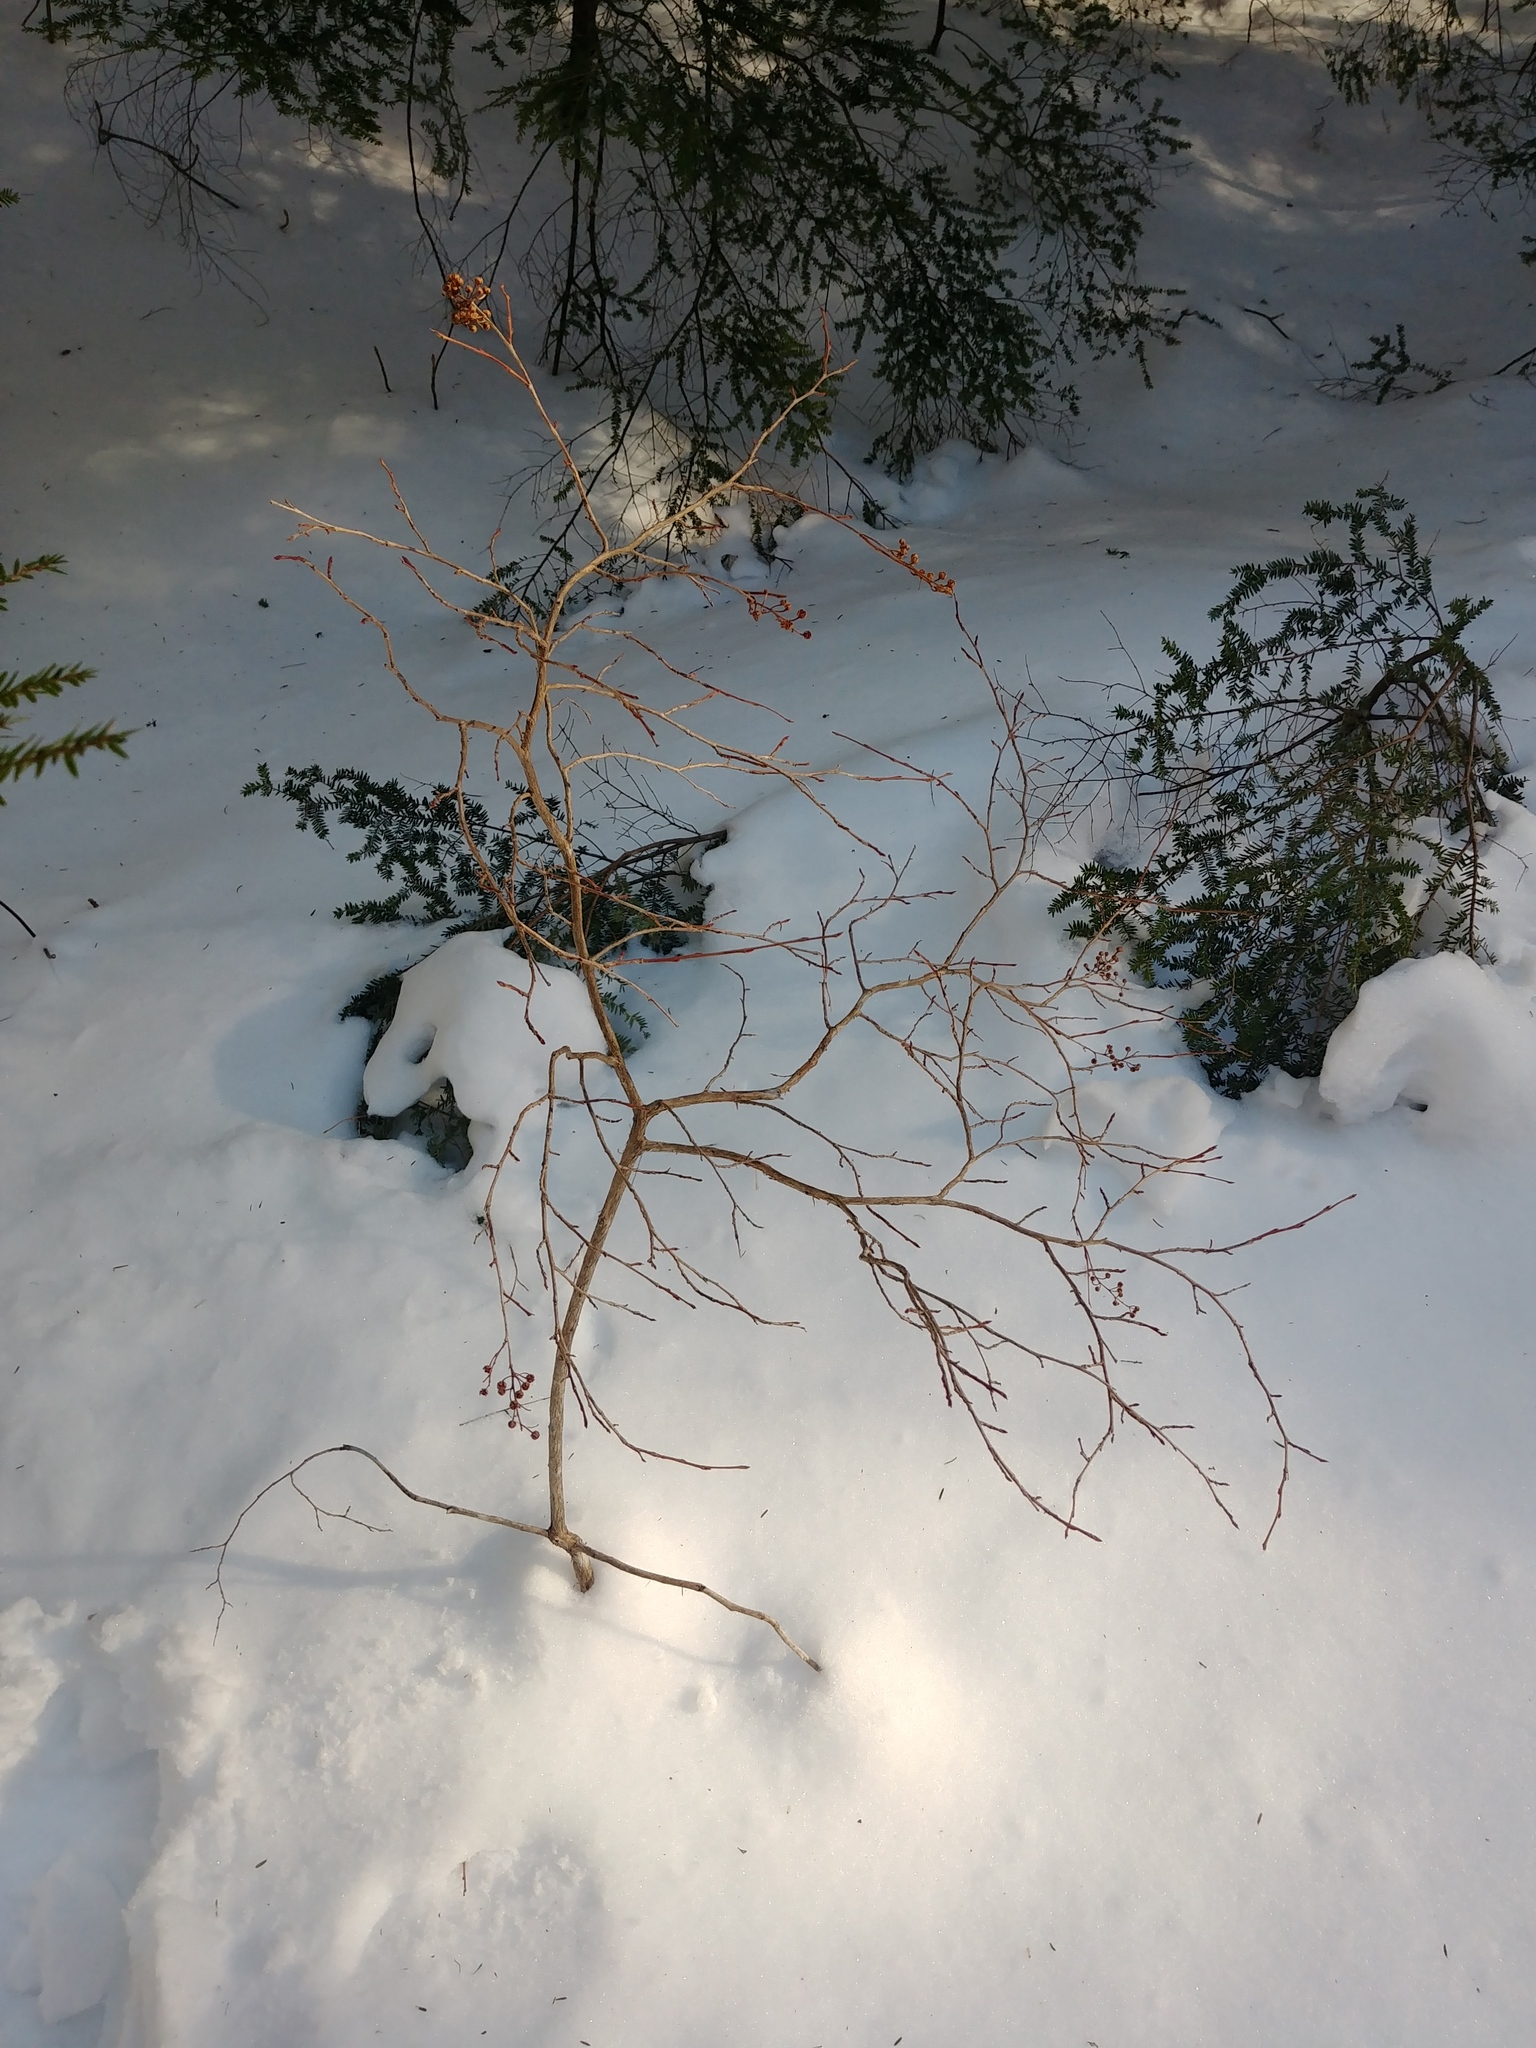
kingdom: Plantae
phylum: Tracheophyta
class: Magnoliopsida
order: Ericales
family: Ericaceae
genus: Lyonia
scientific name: Lyonia ligustrina
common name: Maleberry
